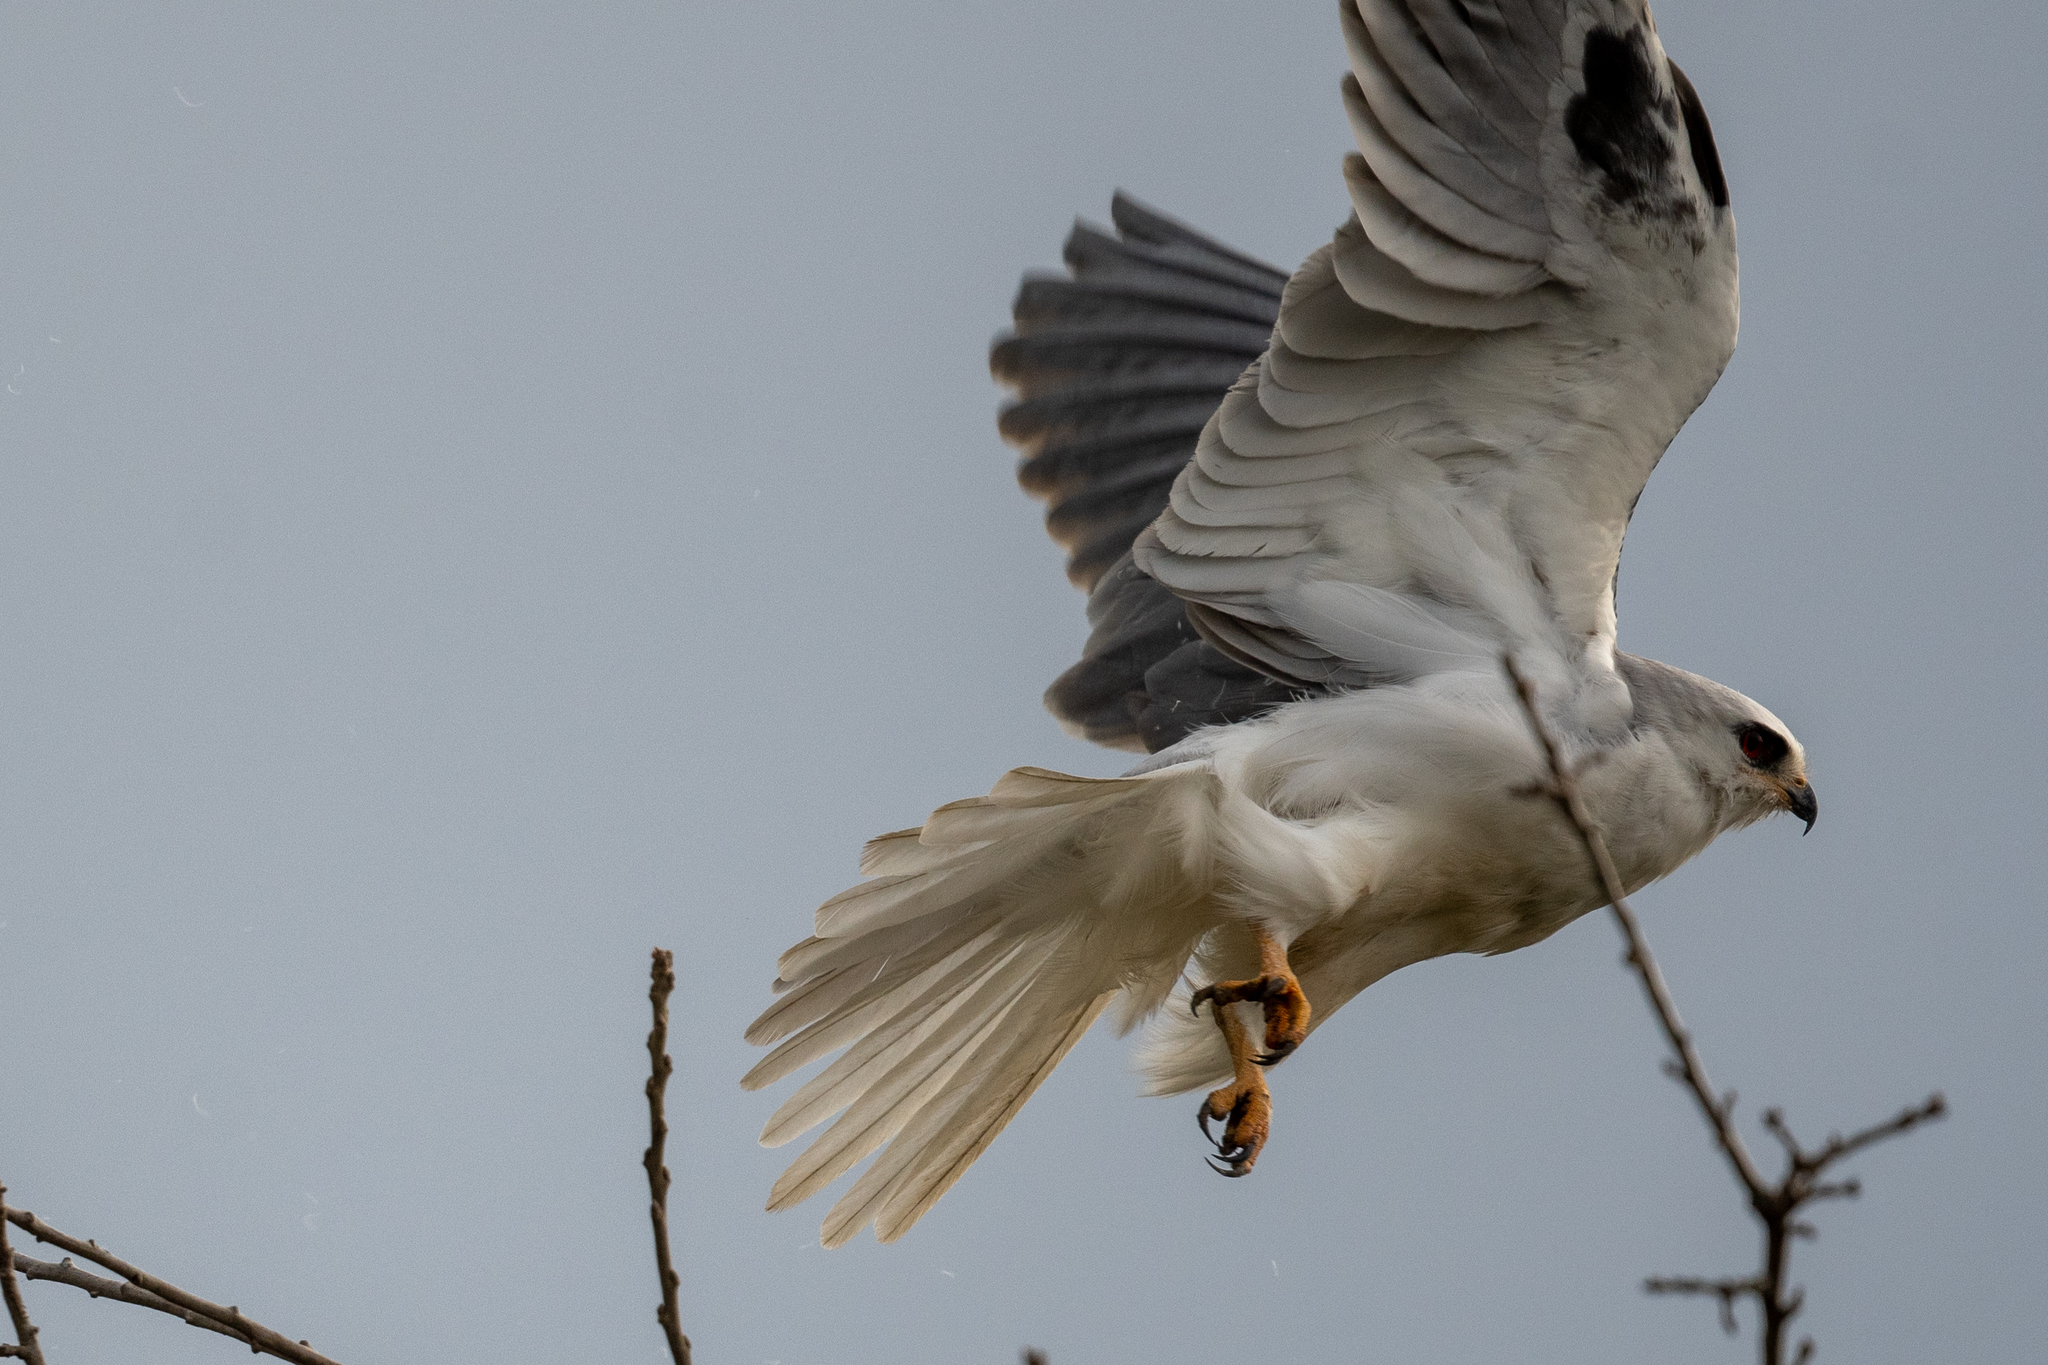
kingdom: Animalia
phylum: Chordata
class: Aves
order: Accipitriformes
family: Accipitridae
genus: Elanus
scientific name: Elanus leucurus
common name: White-tailed kite
